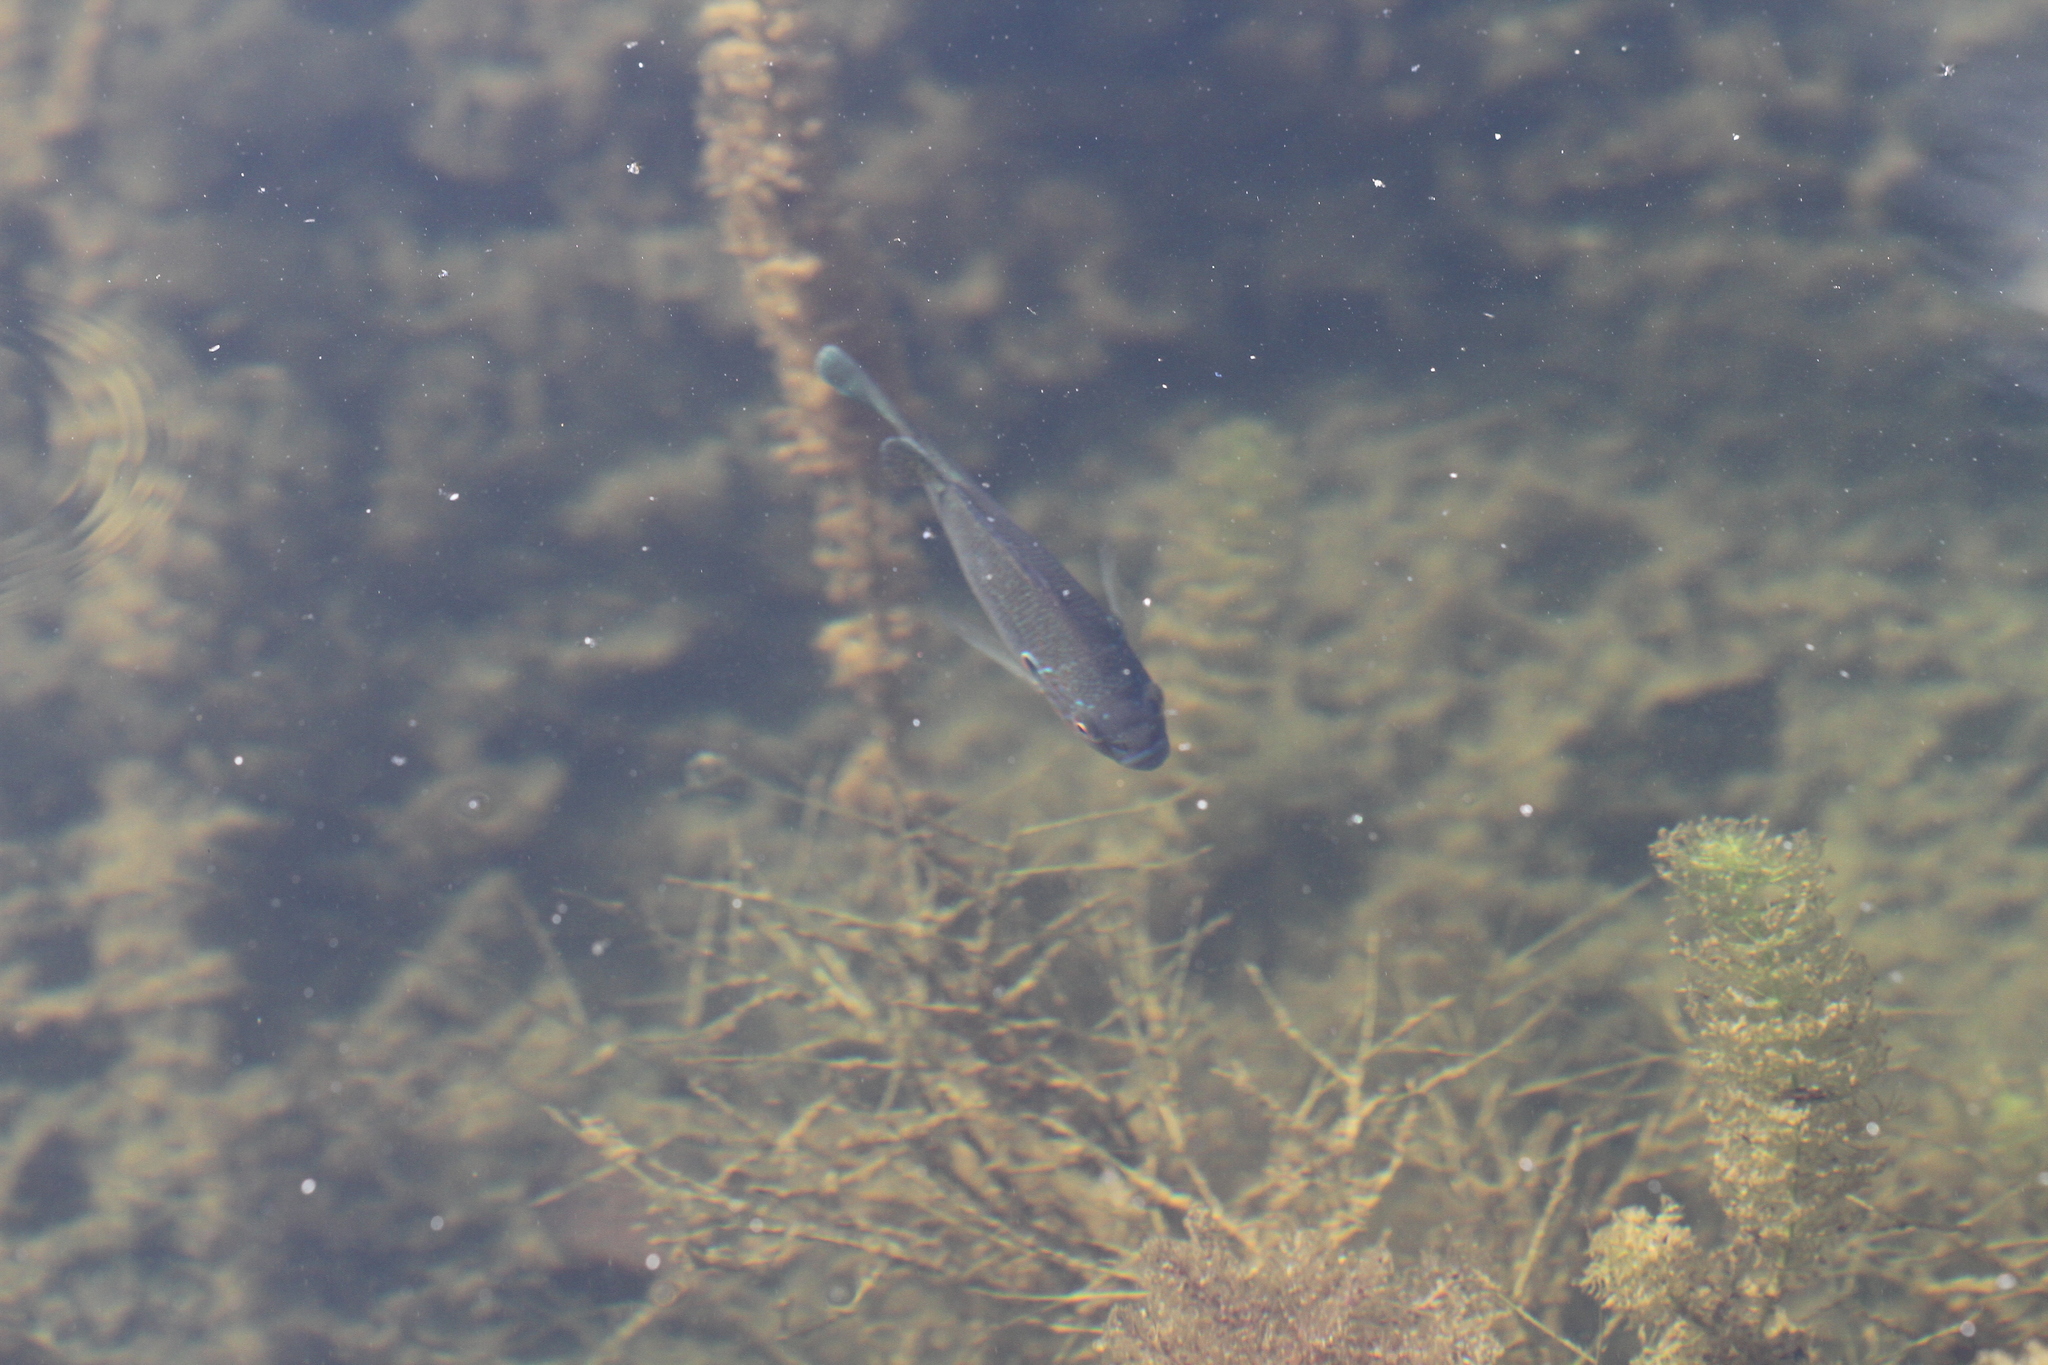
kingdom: Animalia
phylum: Chordata
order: Perciformes
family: Centrarchidae
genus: Lepomis
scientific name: Lepomis gibbosus
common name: Pumpkinseed
